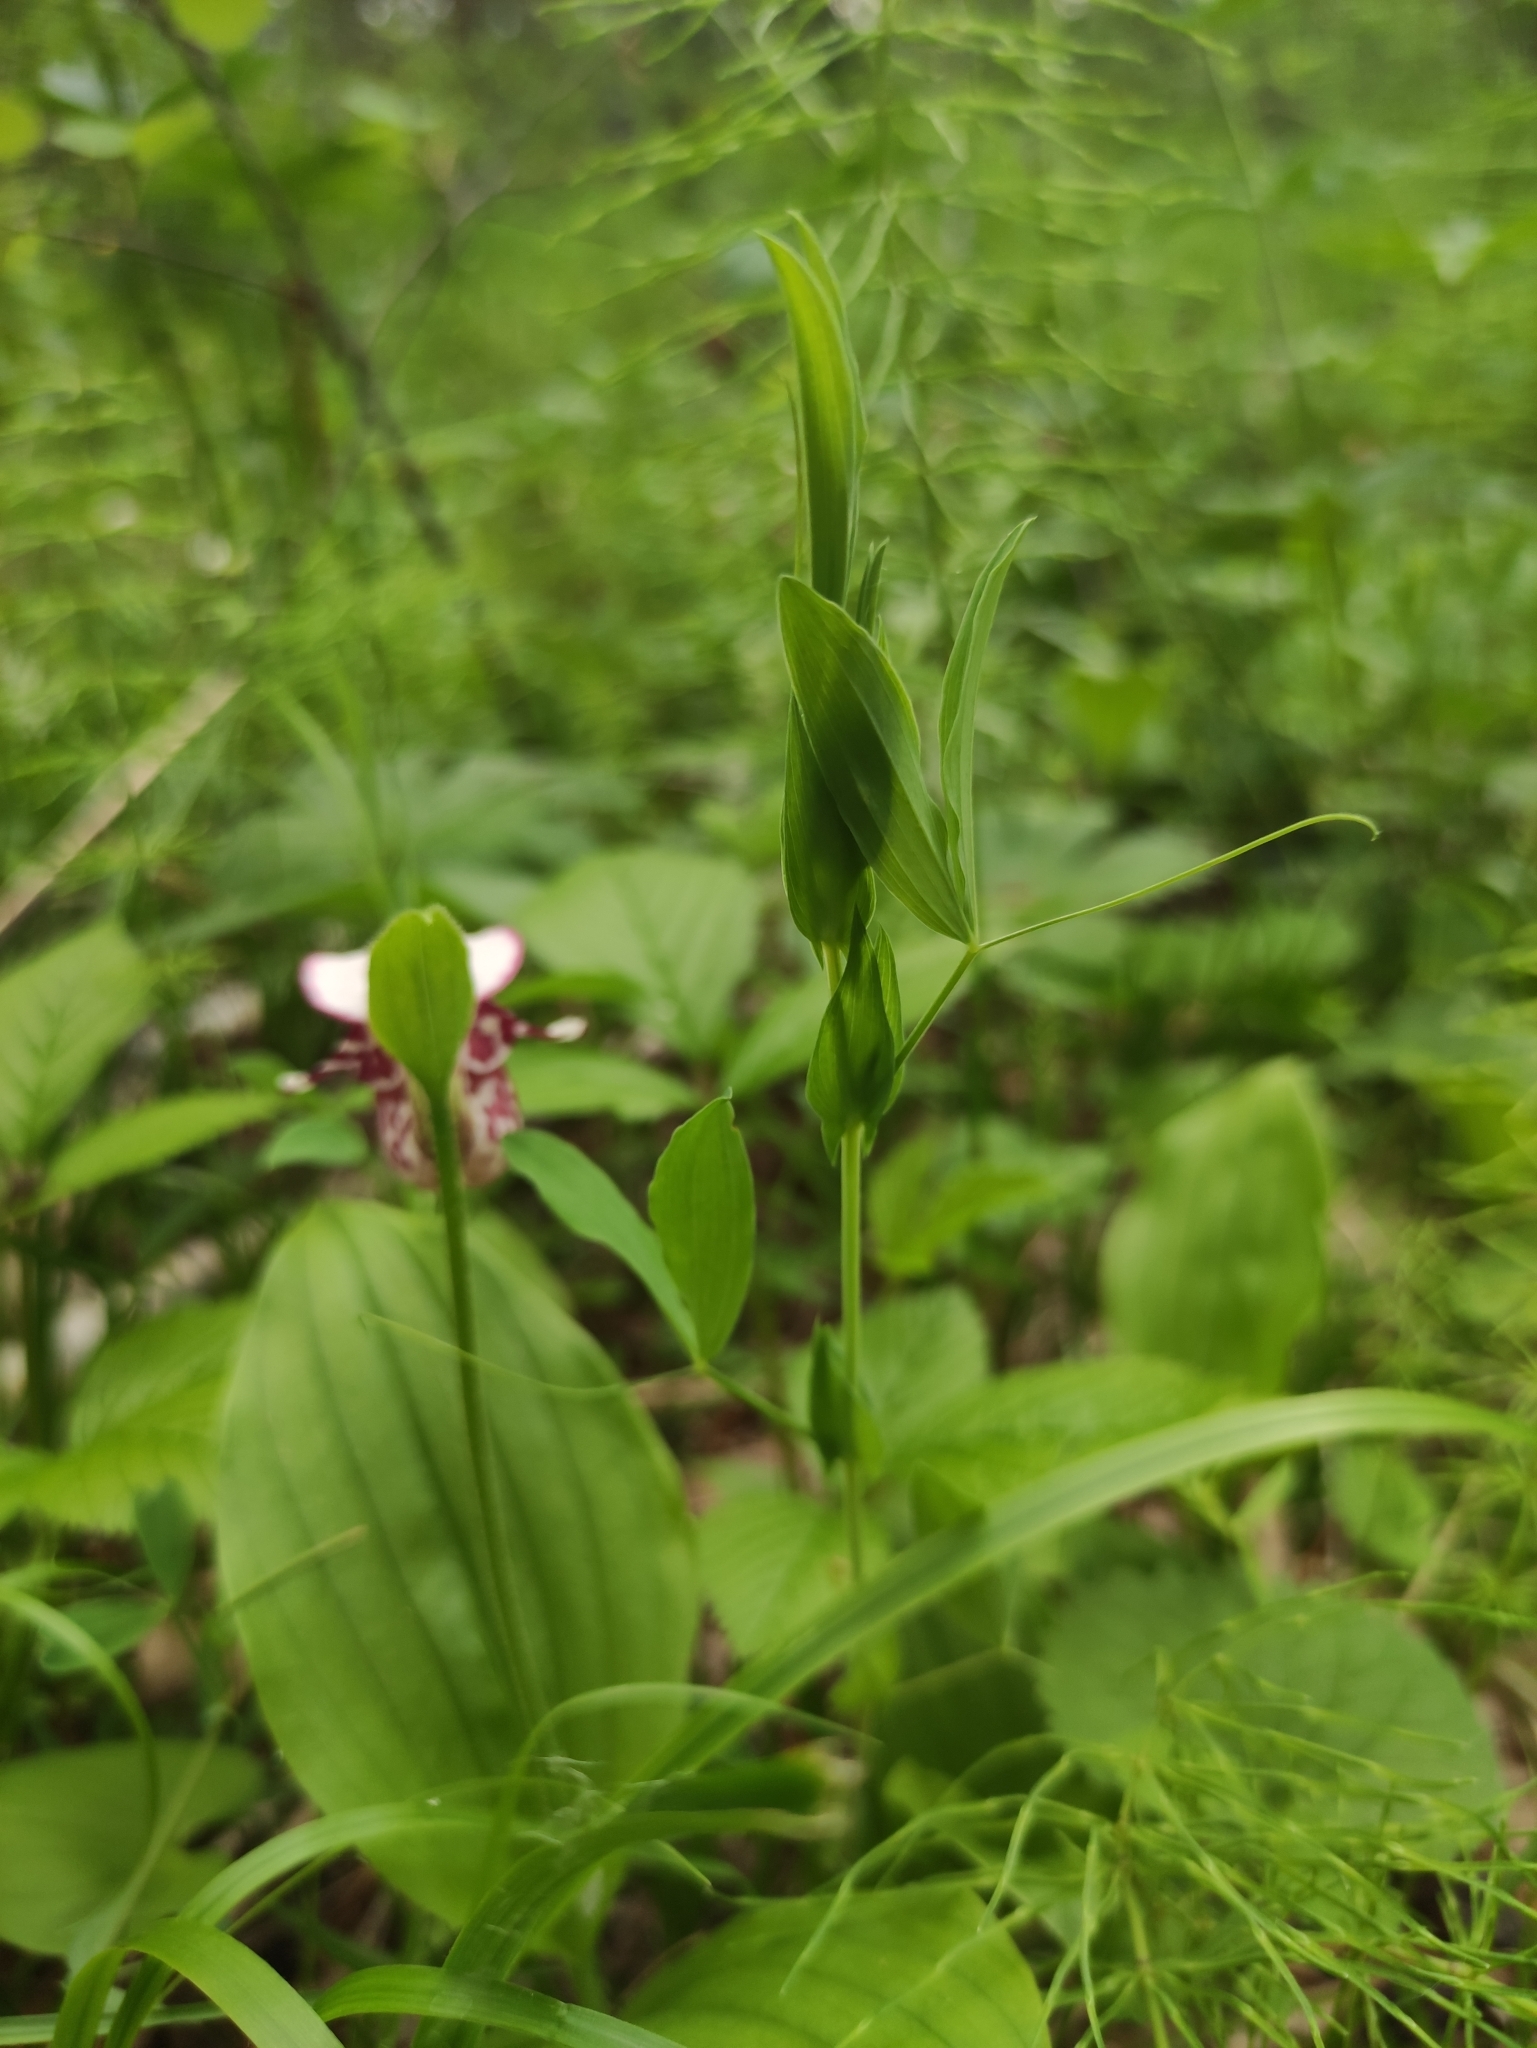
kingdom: Plantae
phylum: Tracheophyta
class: Magnoliopsida
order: Fabales
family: Fabaceae
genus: Lathyrus
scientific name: Lathyrus pratensis
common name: Meadow vetchling
